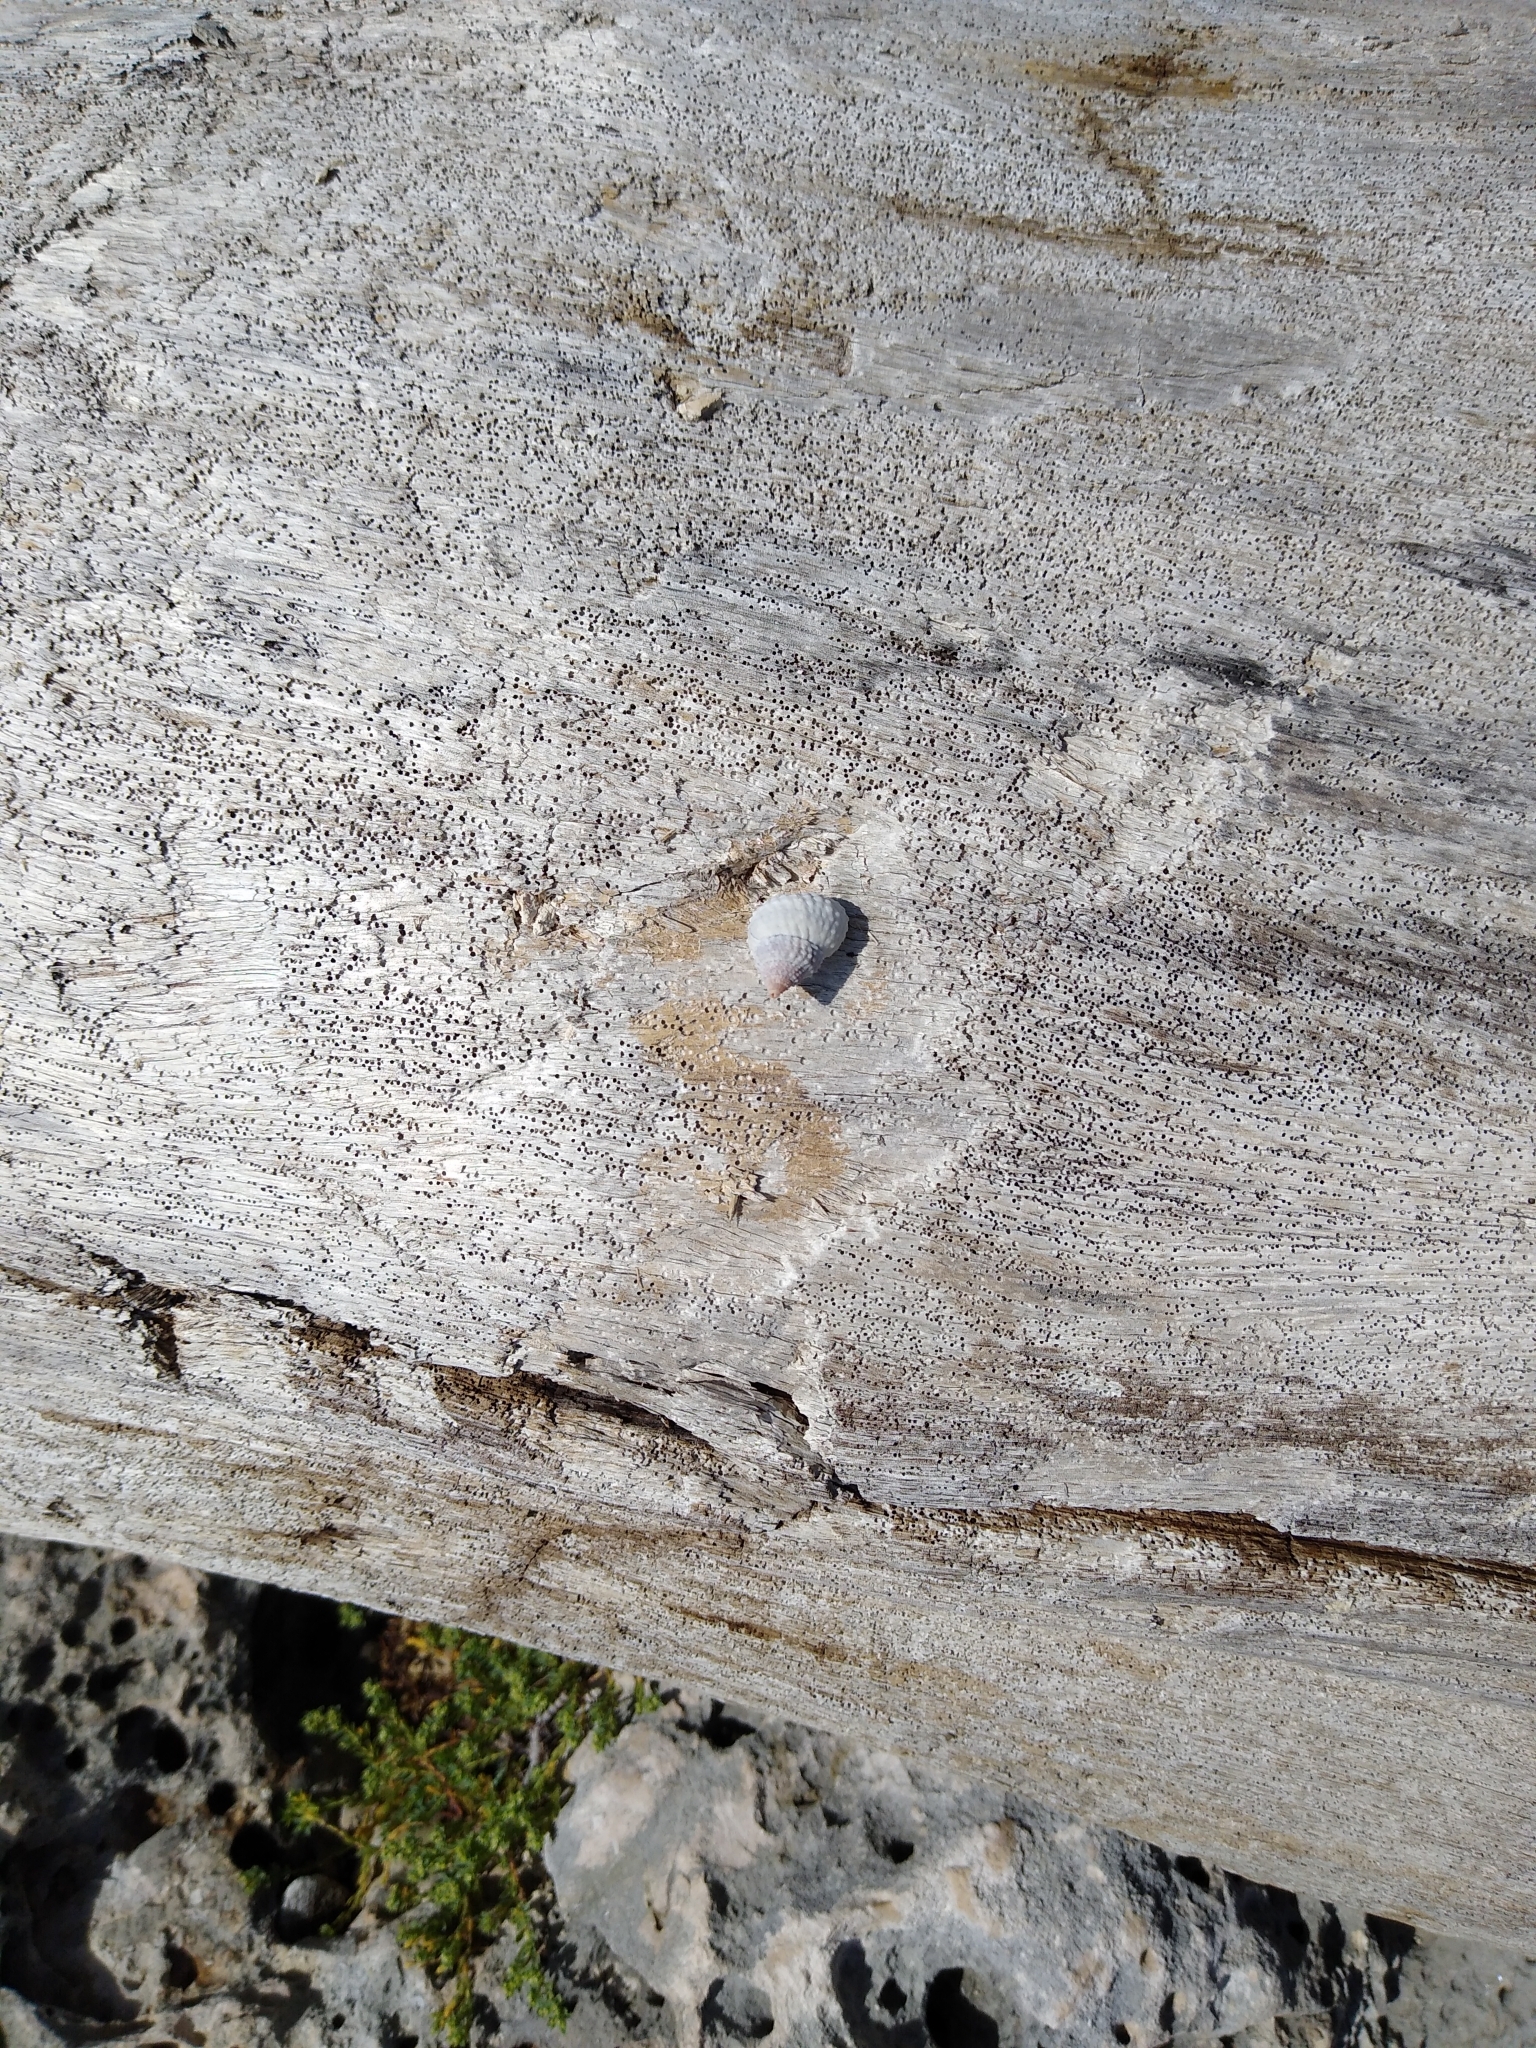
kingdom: Animalia
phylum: Mollusca
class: Gastropoda
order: Littorinimorpha
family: Littorinidae
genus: Cenchritis
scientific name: Cenchritis muricatus
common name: Beaded periwinkle
